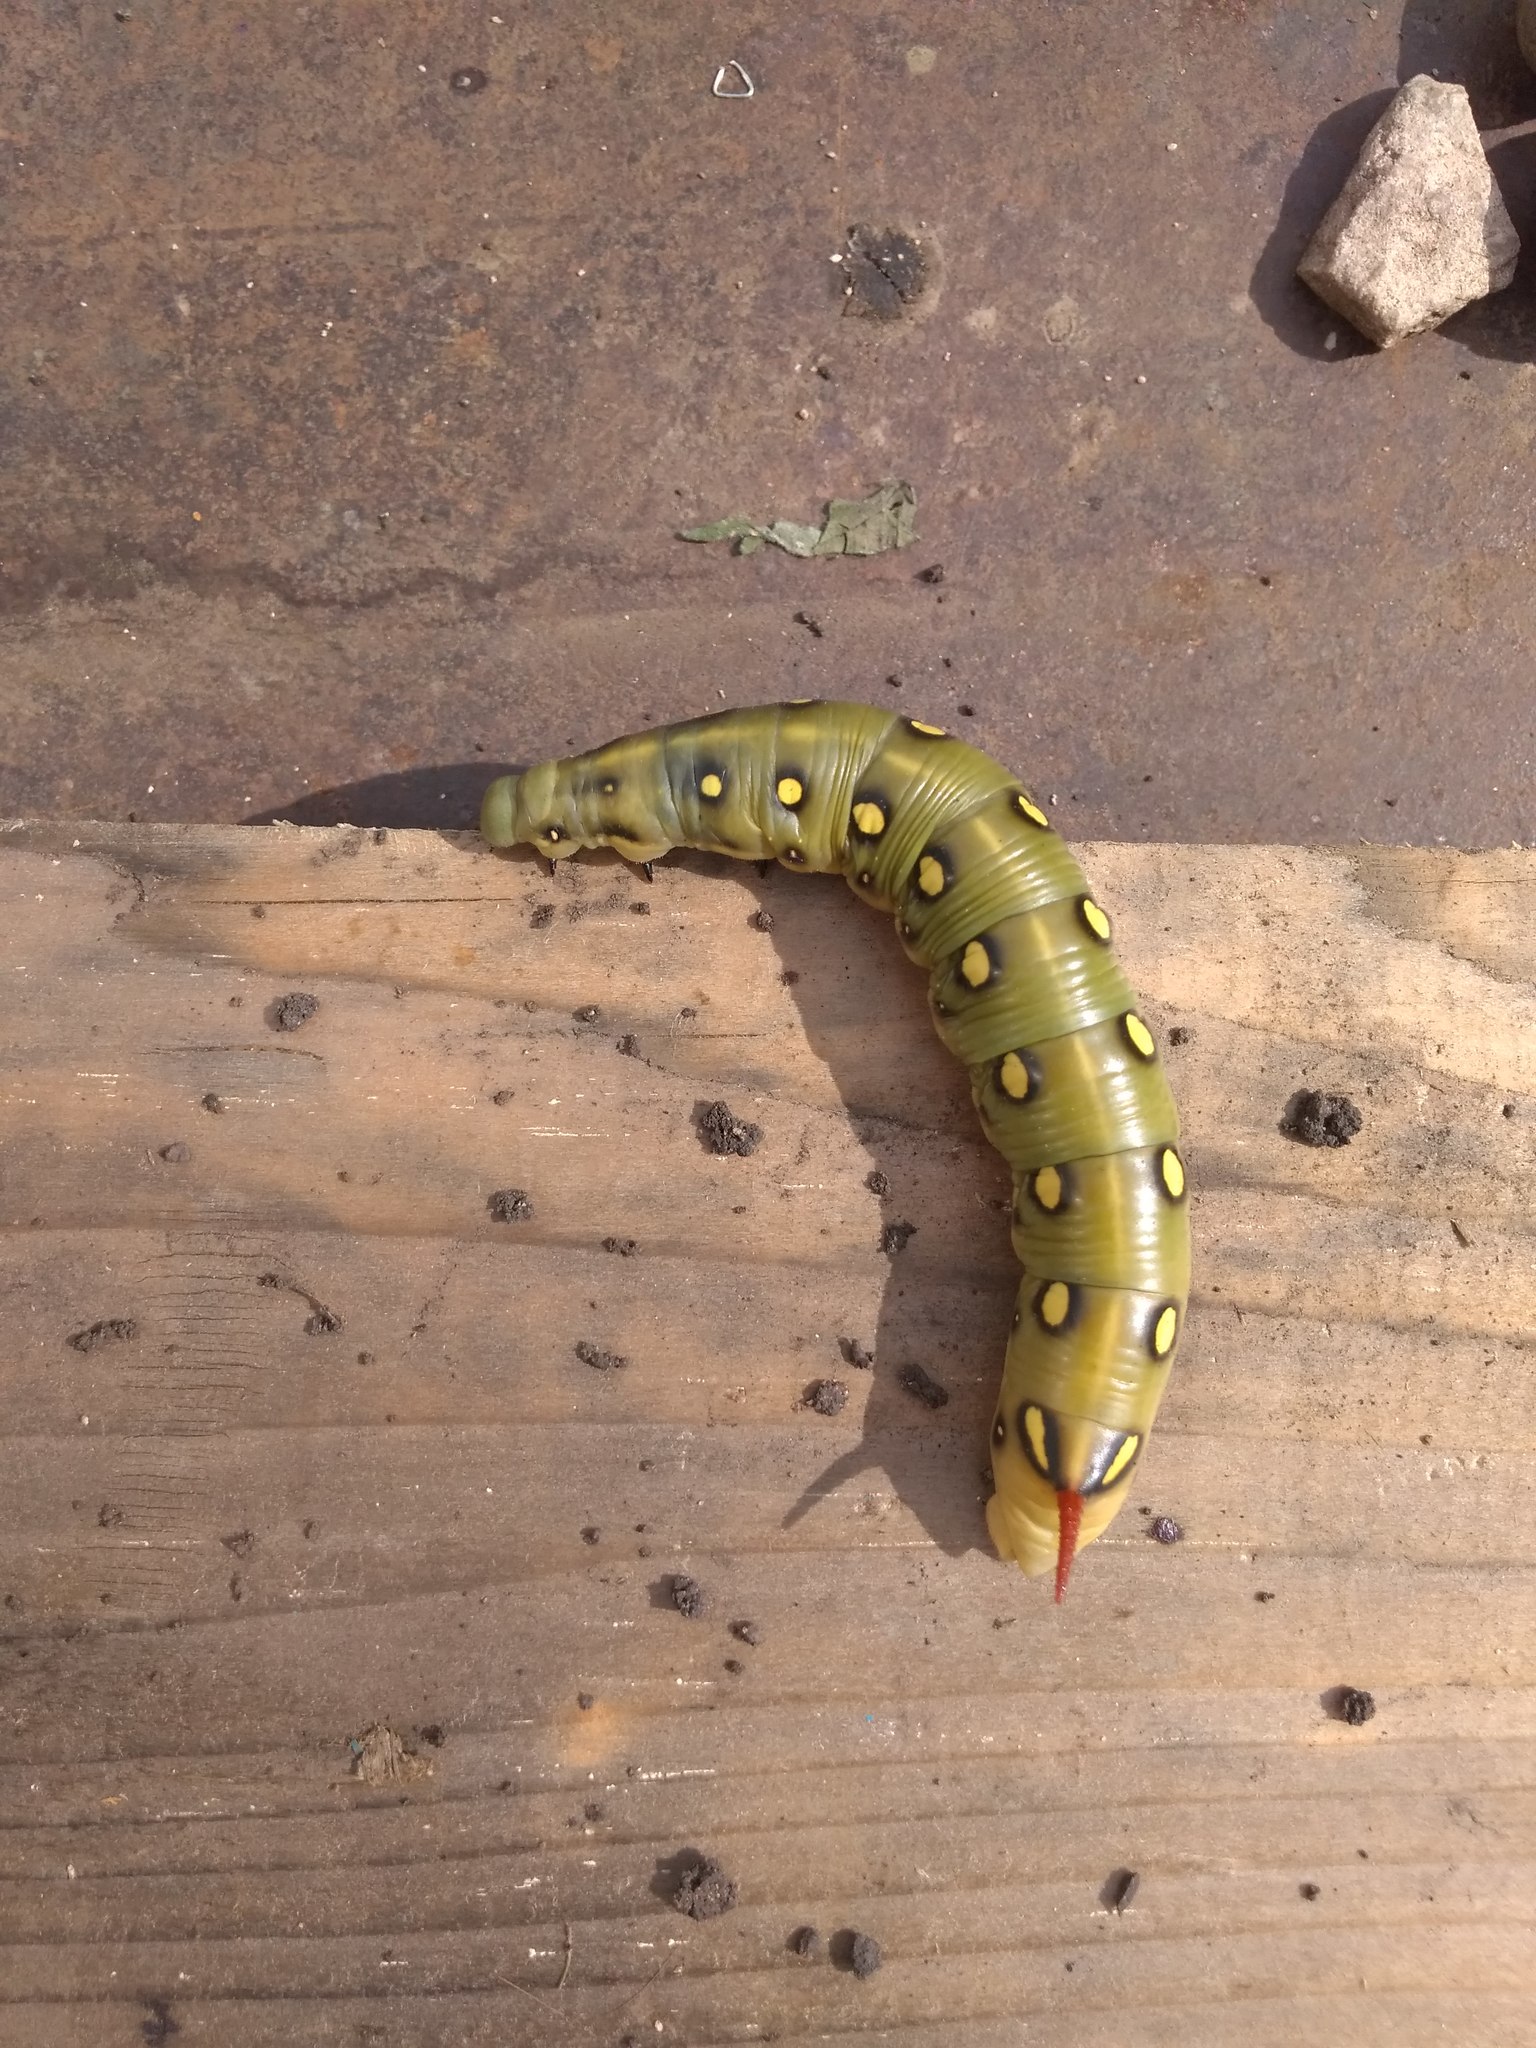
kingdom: Animalia
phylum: Arthropoda
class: Insecta
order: Lepidoptera
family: Sphingidae
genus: Hyles
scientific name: Hyles gallii
